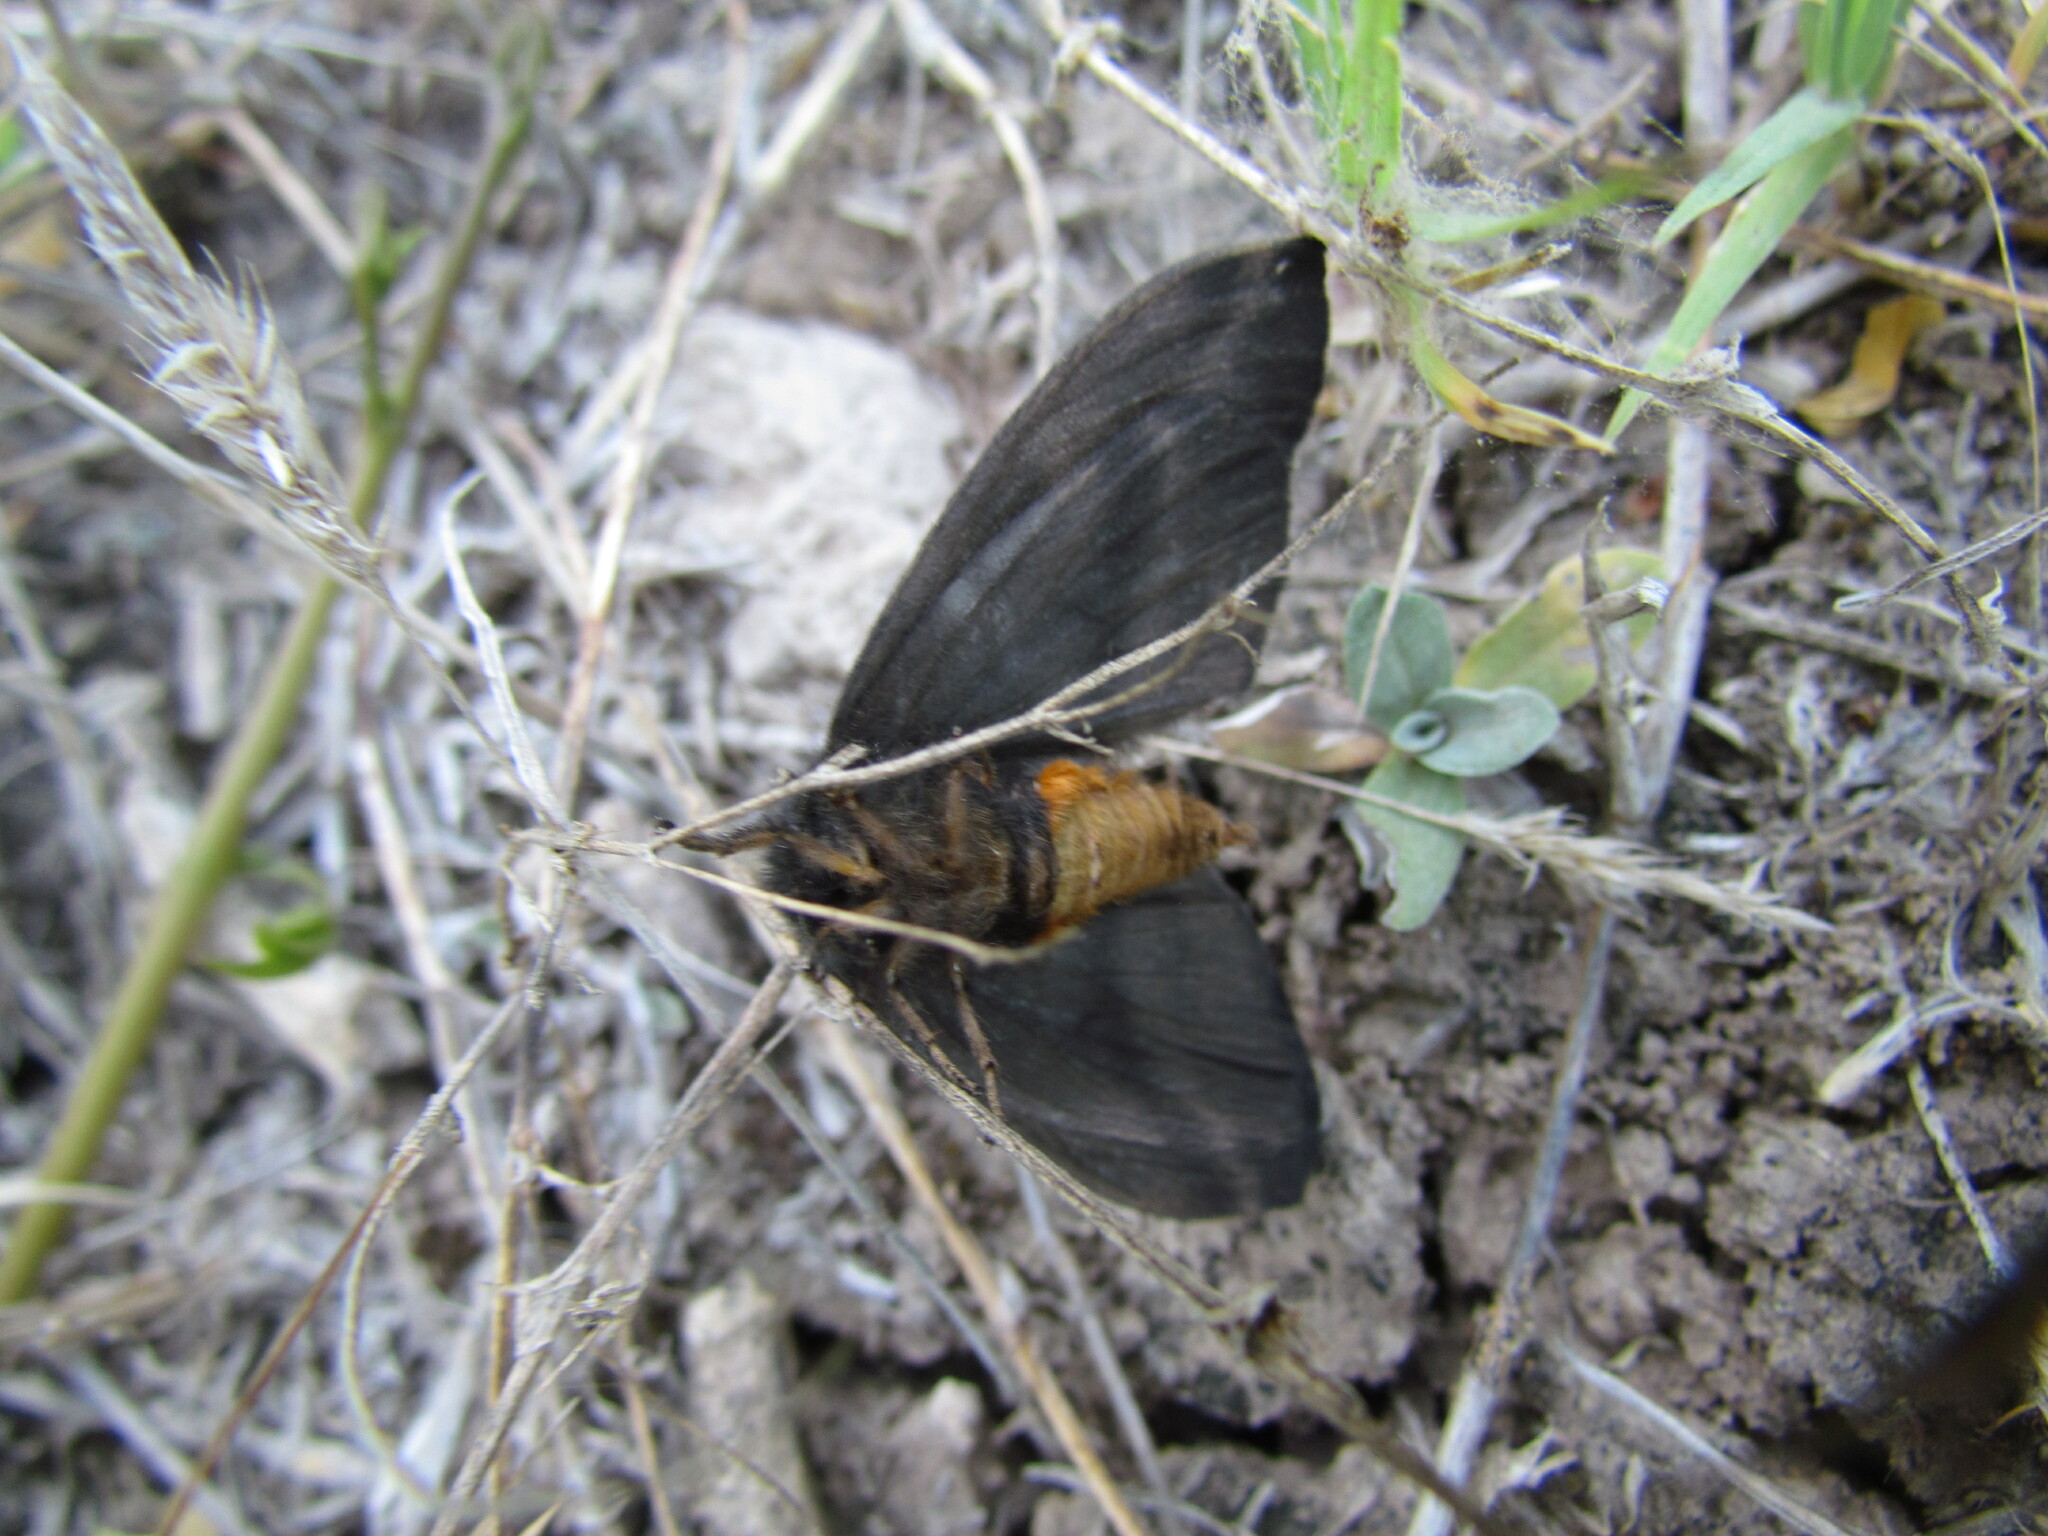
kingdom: Animalia
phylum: Arthropoda
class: Insecta
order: Lepidoptera
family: Saturniidae
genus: Hylesia
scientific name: Hylesia nigricans
